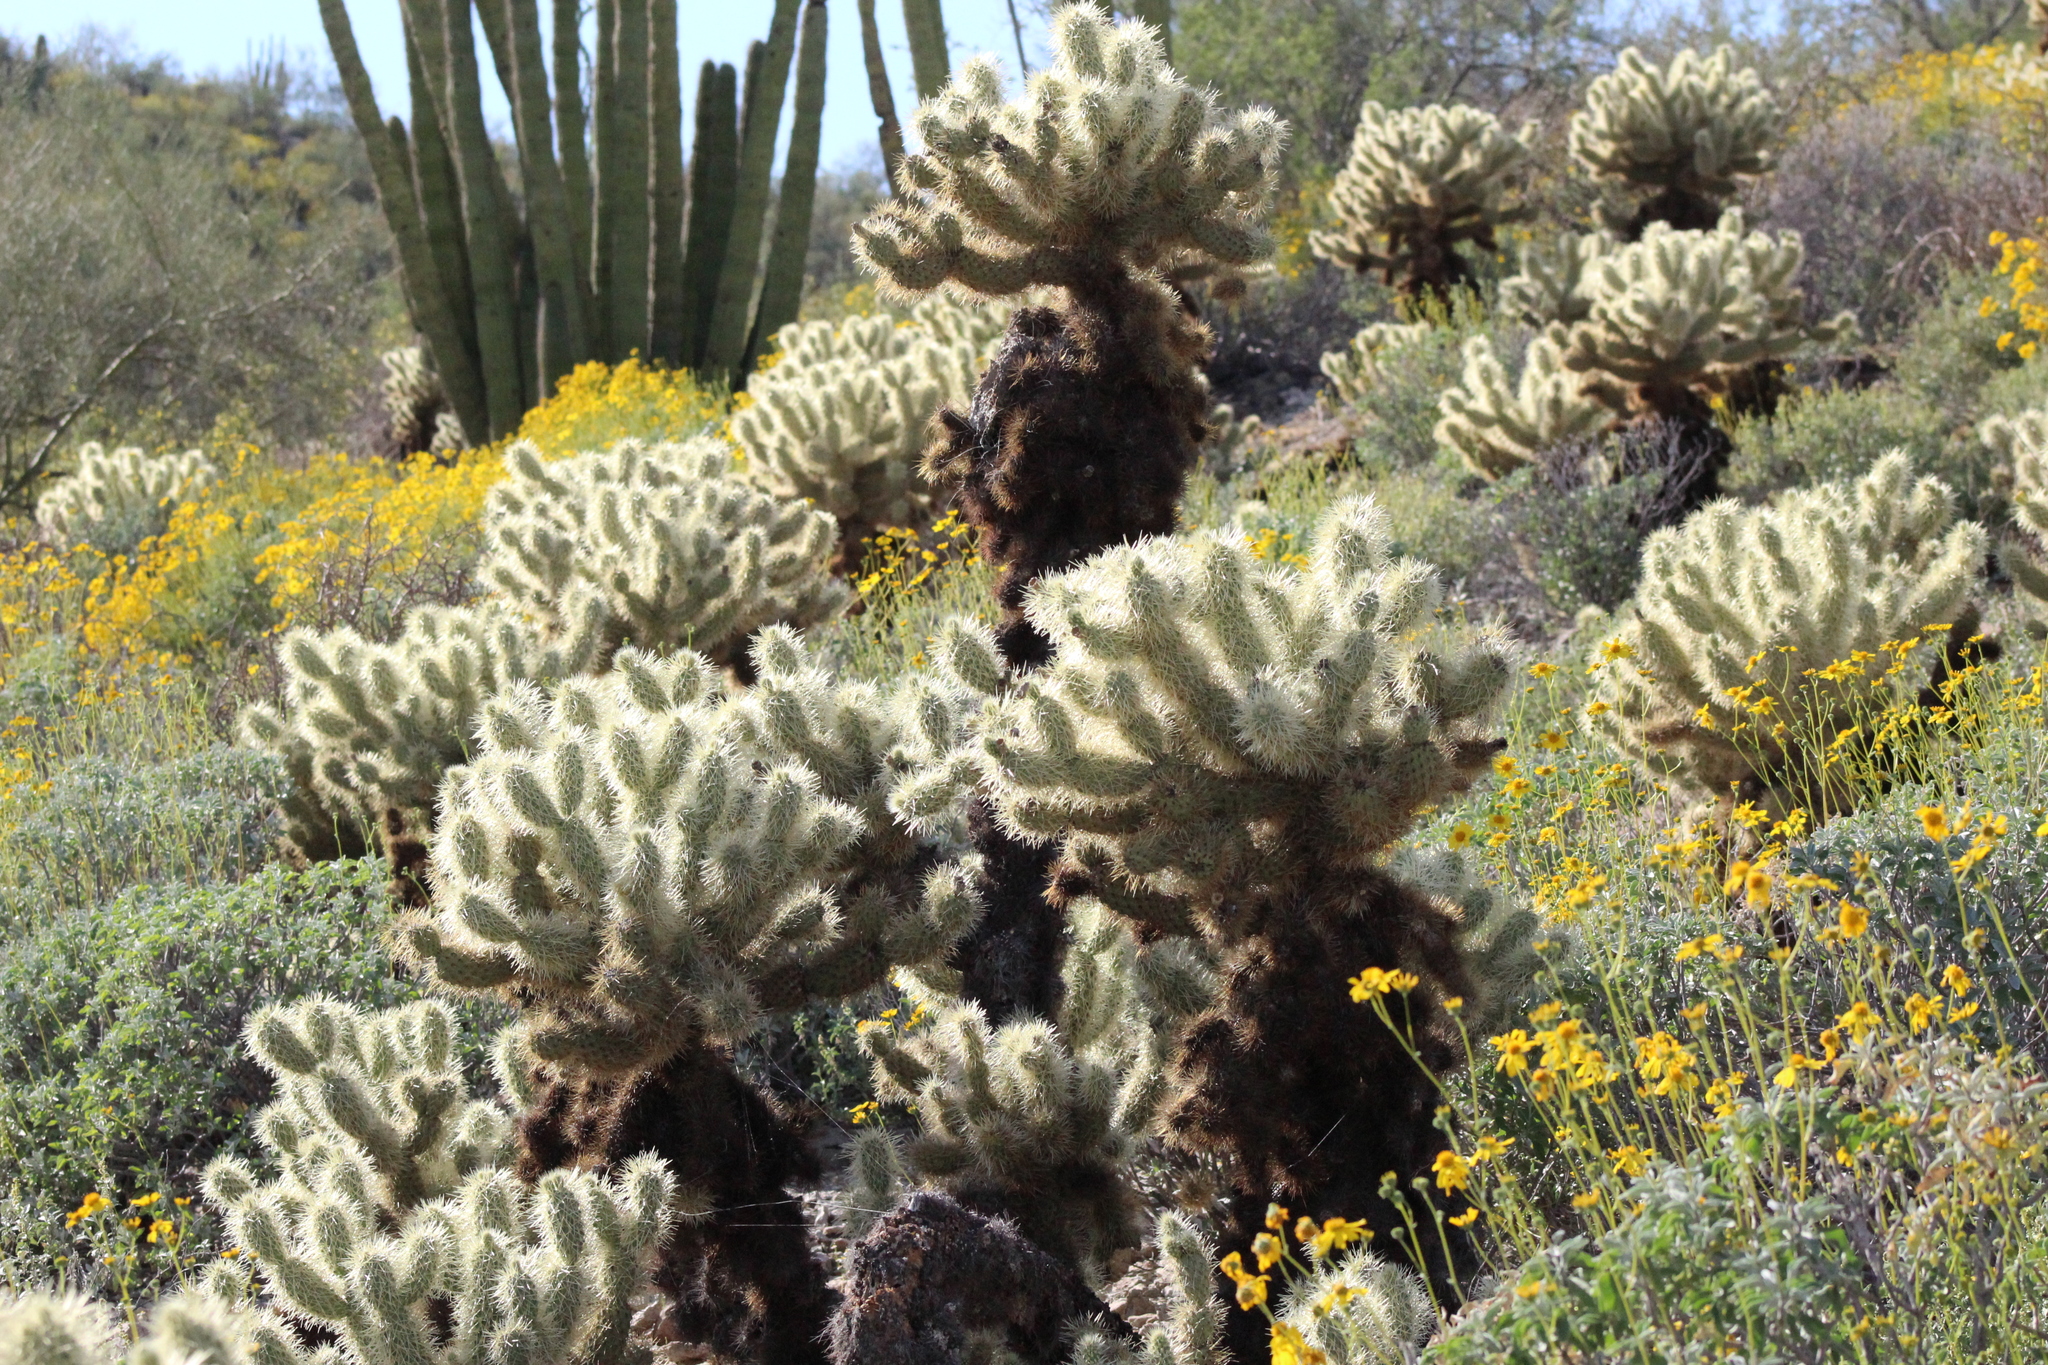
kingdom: Plantae
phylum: Tracheophyta
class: Magnoliopsida
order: Caryophyllales
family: Cactaceae
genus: Cylindropuntia
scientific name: Cylindropuntia fosbergii
